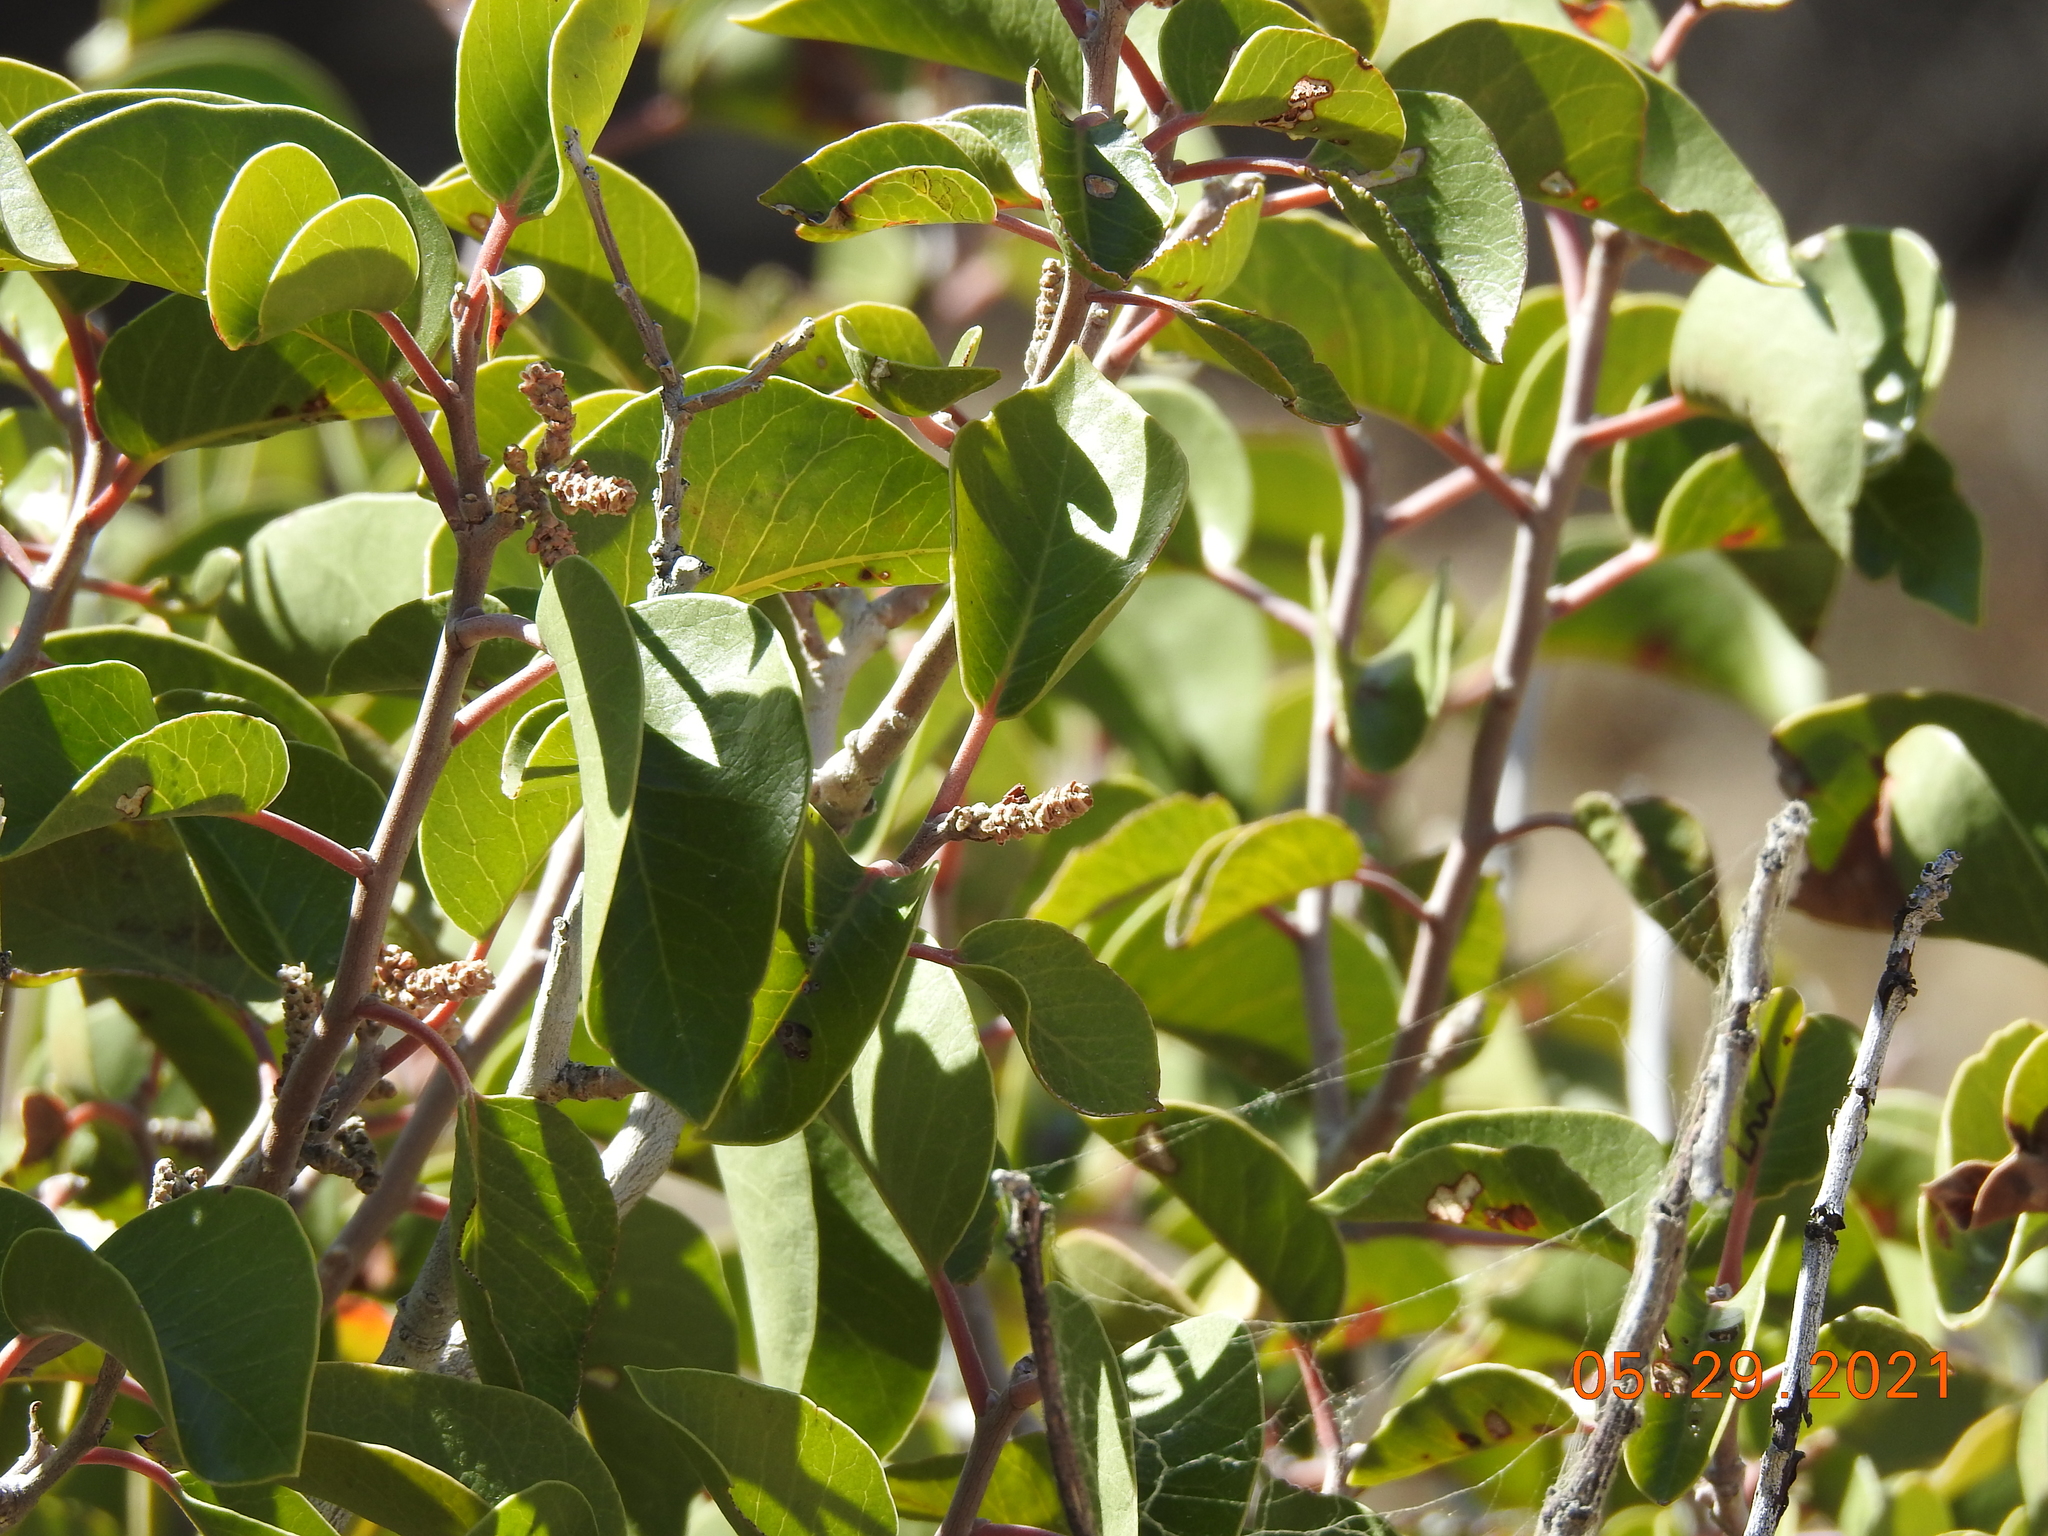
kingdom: Plantae
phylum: Tracheophyta
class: Magnoliopsida
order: Sapindales
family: Anacardiaceae
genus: Rhus
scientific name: Rhus ovata
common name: Sugar sumac
